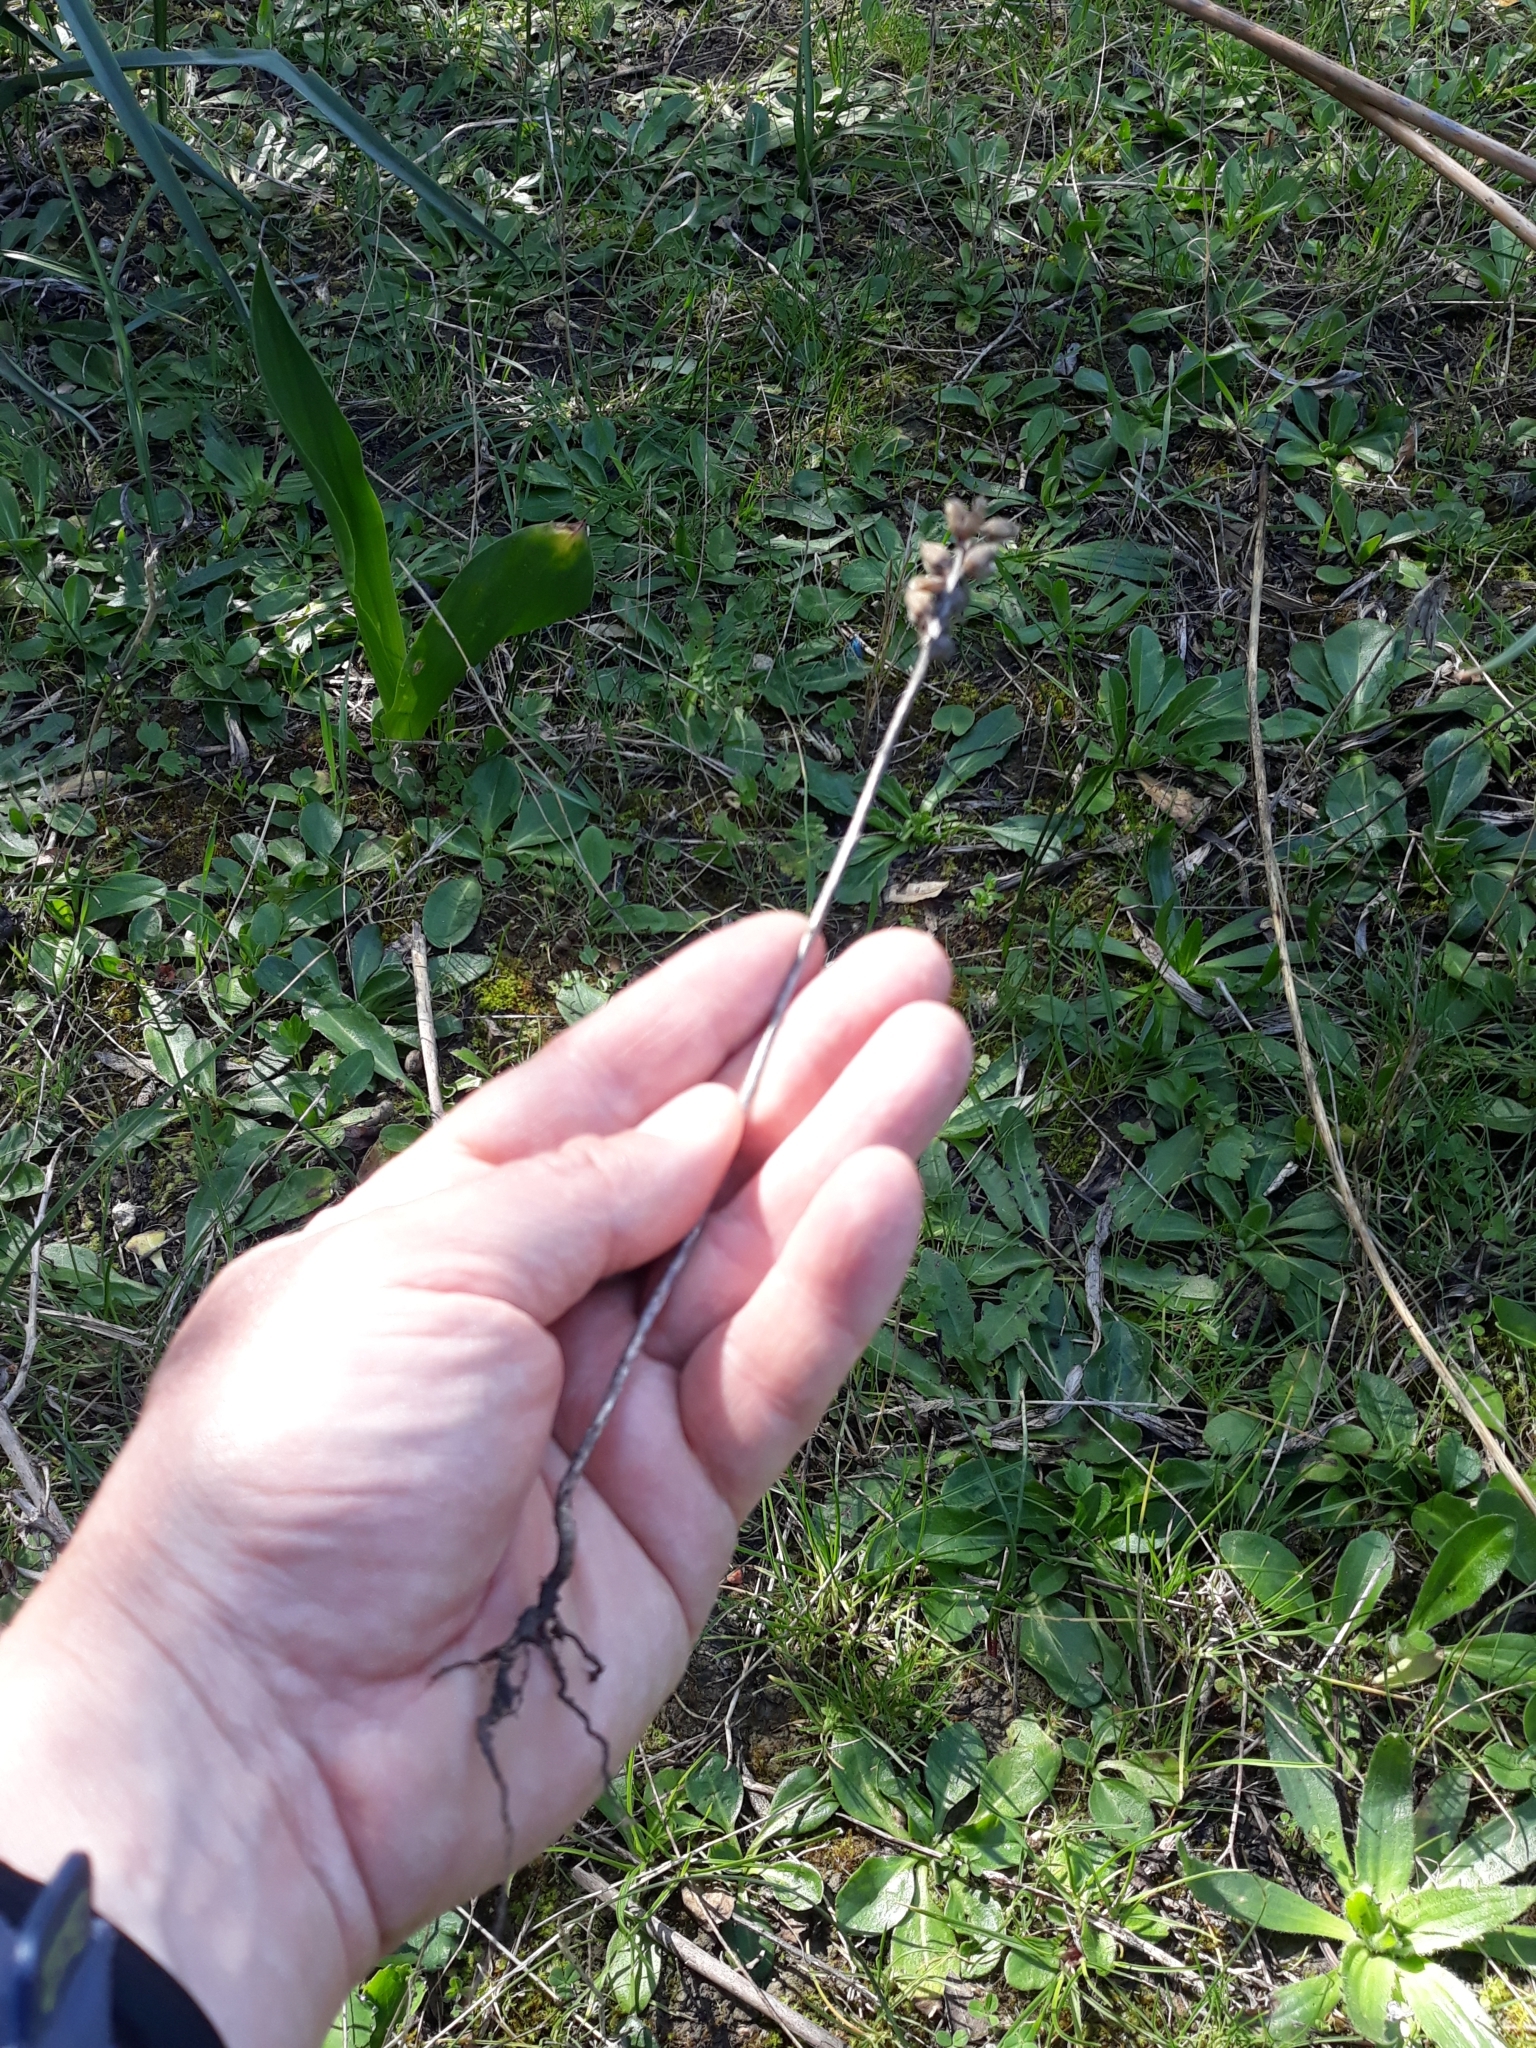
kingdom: Plantae
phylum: Tracheophyta
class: Magnoliopsida
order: Lamiales
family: Orobanchaceae
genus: Bellardia
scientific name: Bellardia trixago
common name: Mediterranean lineseed
